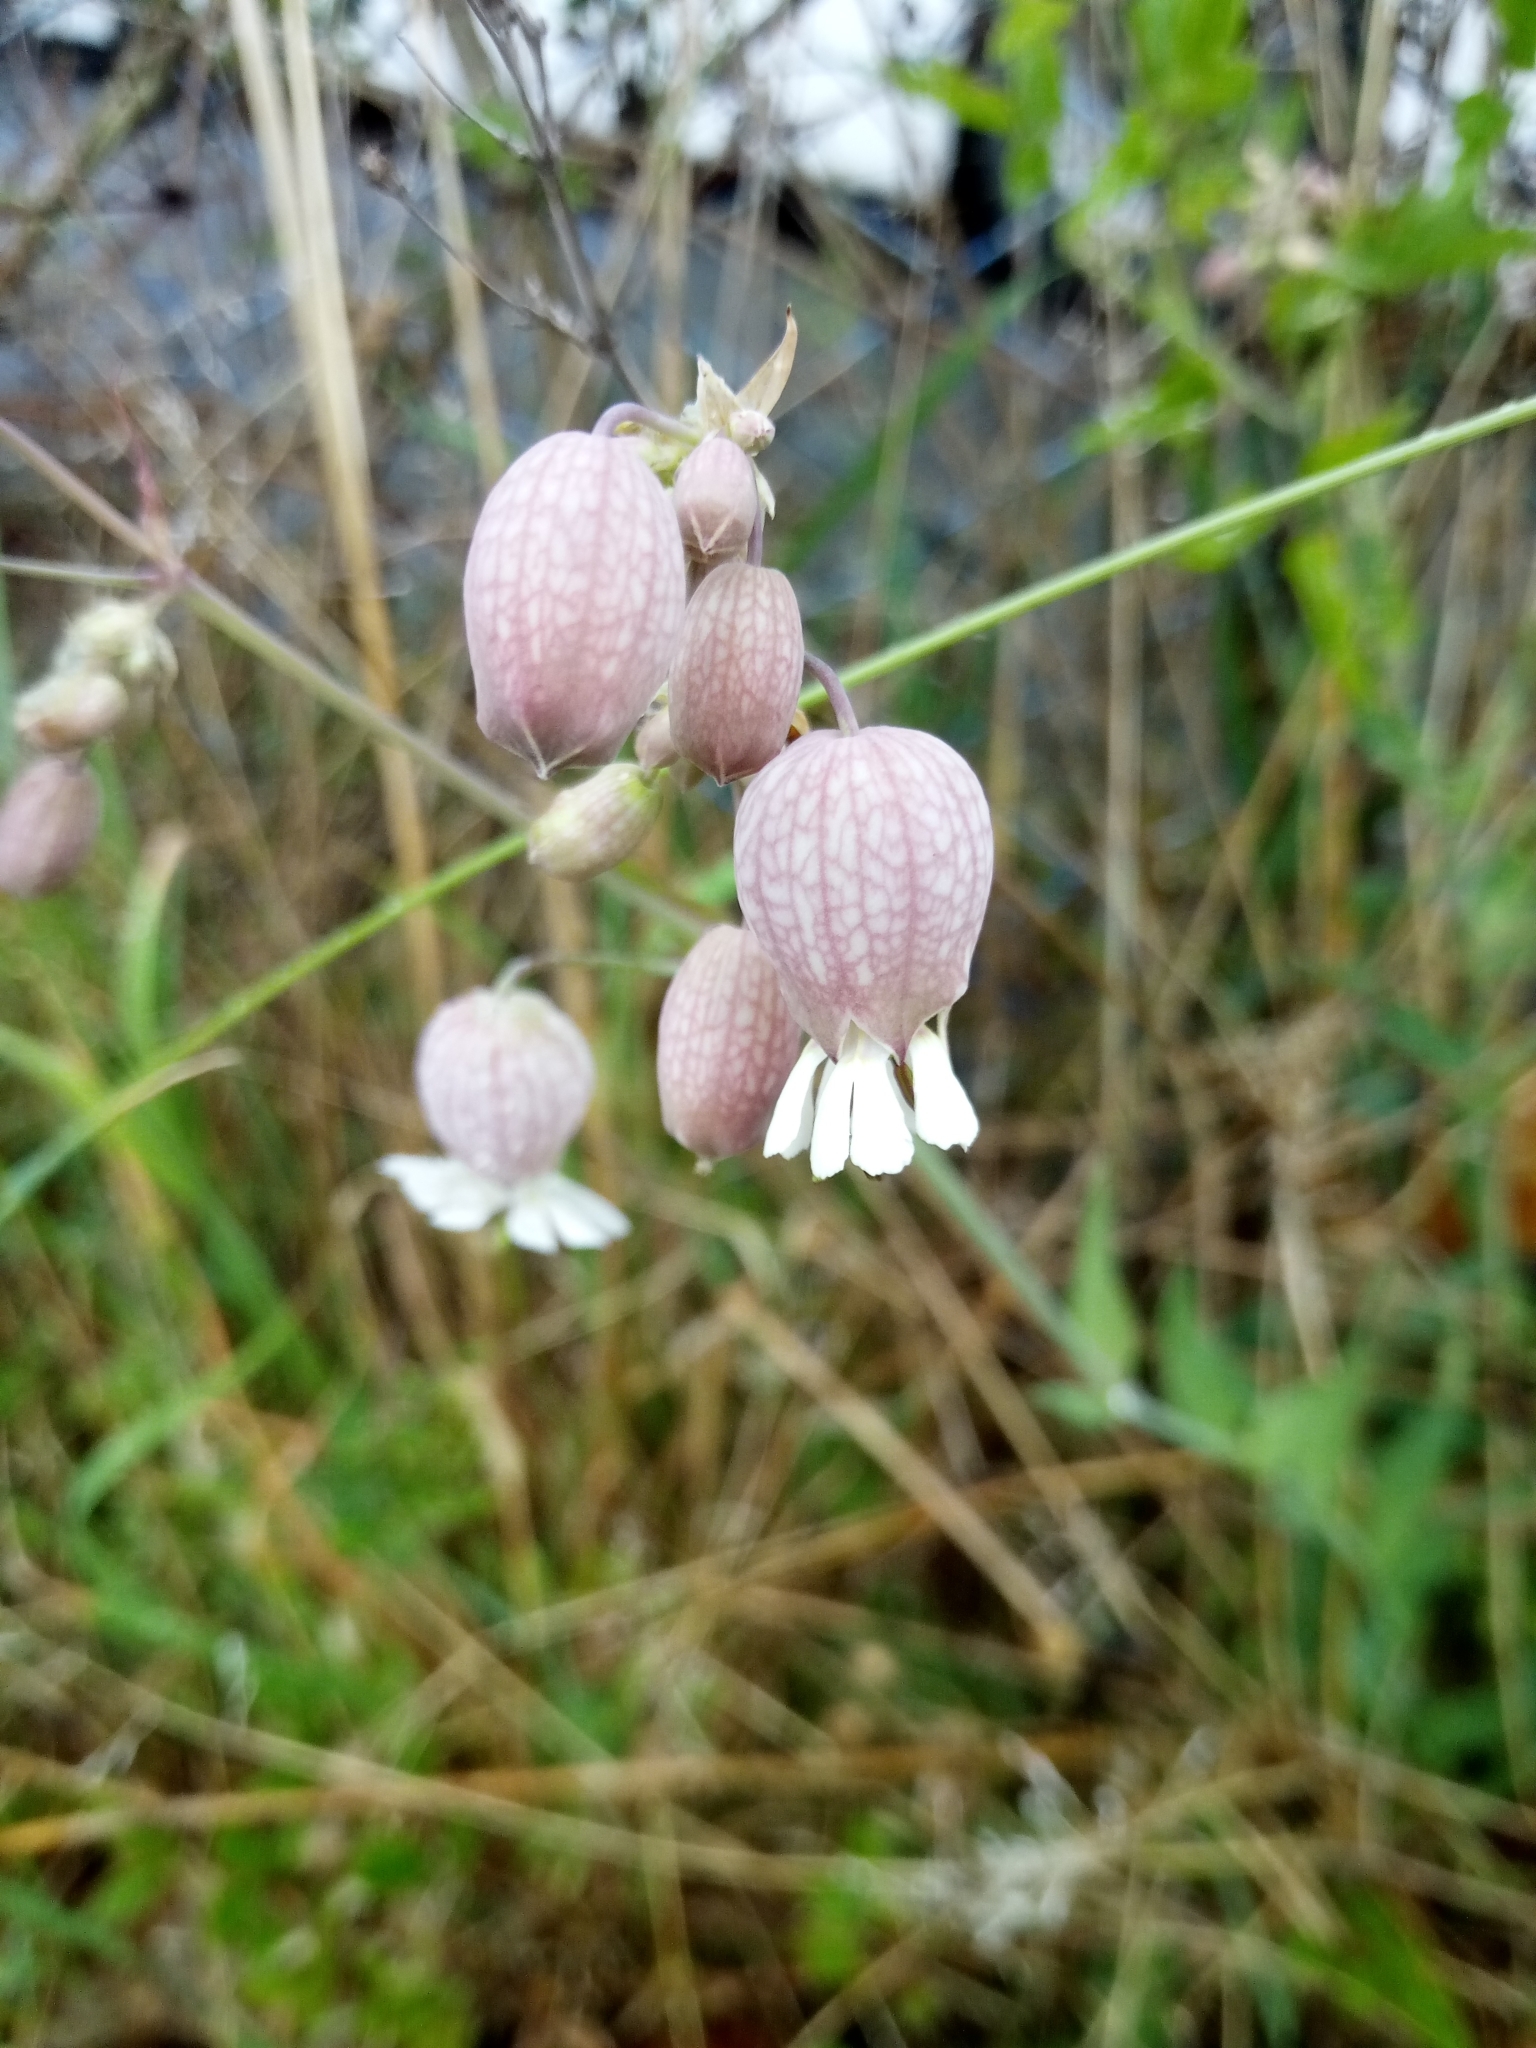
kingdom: Plantae
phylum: Tracheophyta
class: Magnoliopsida
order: Caryophyllales
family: Caryophyllaceae
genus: Silene
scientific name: Silene vulgaris
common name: Bladder campion
